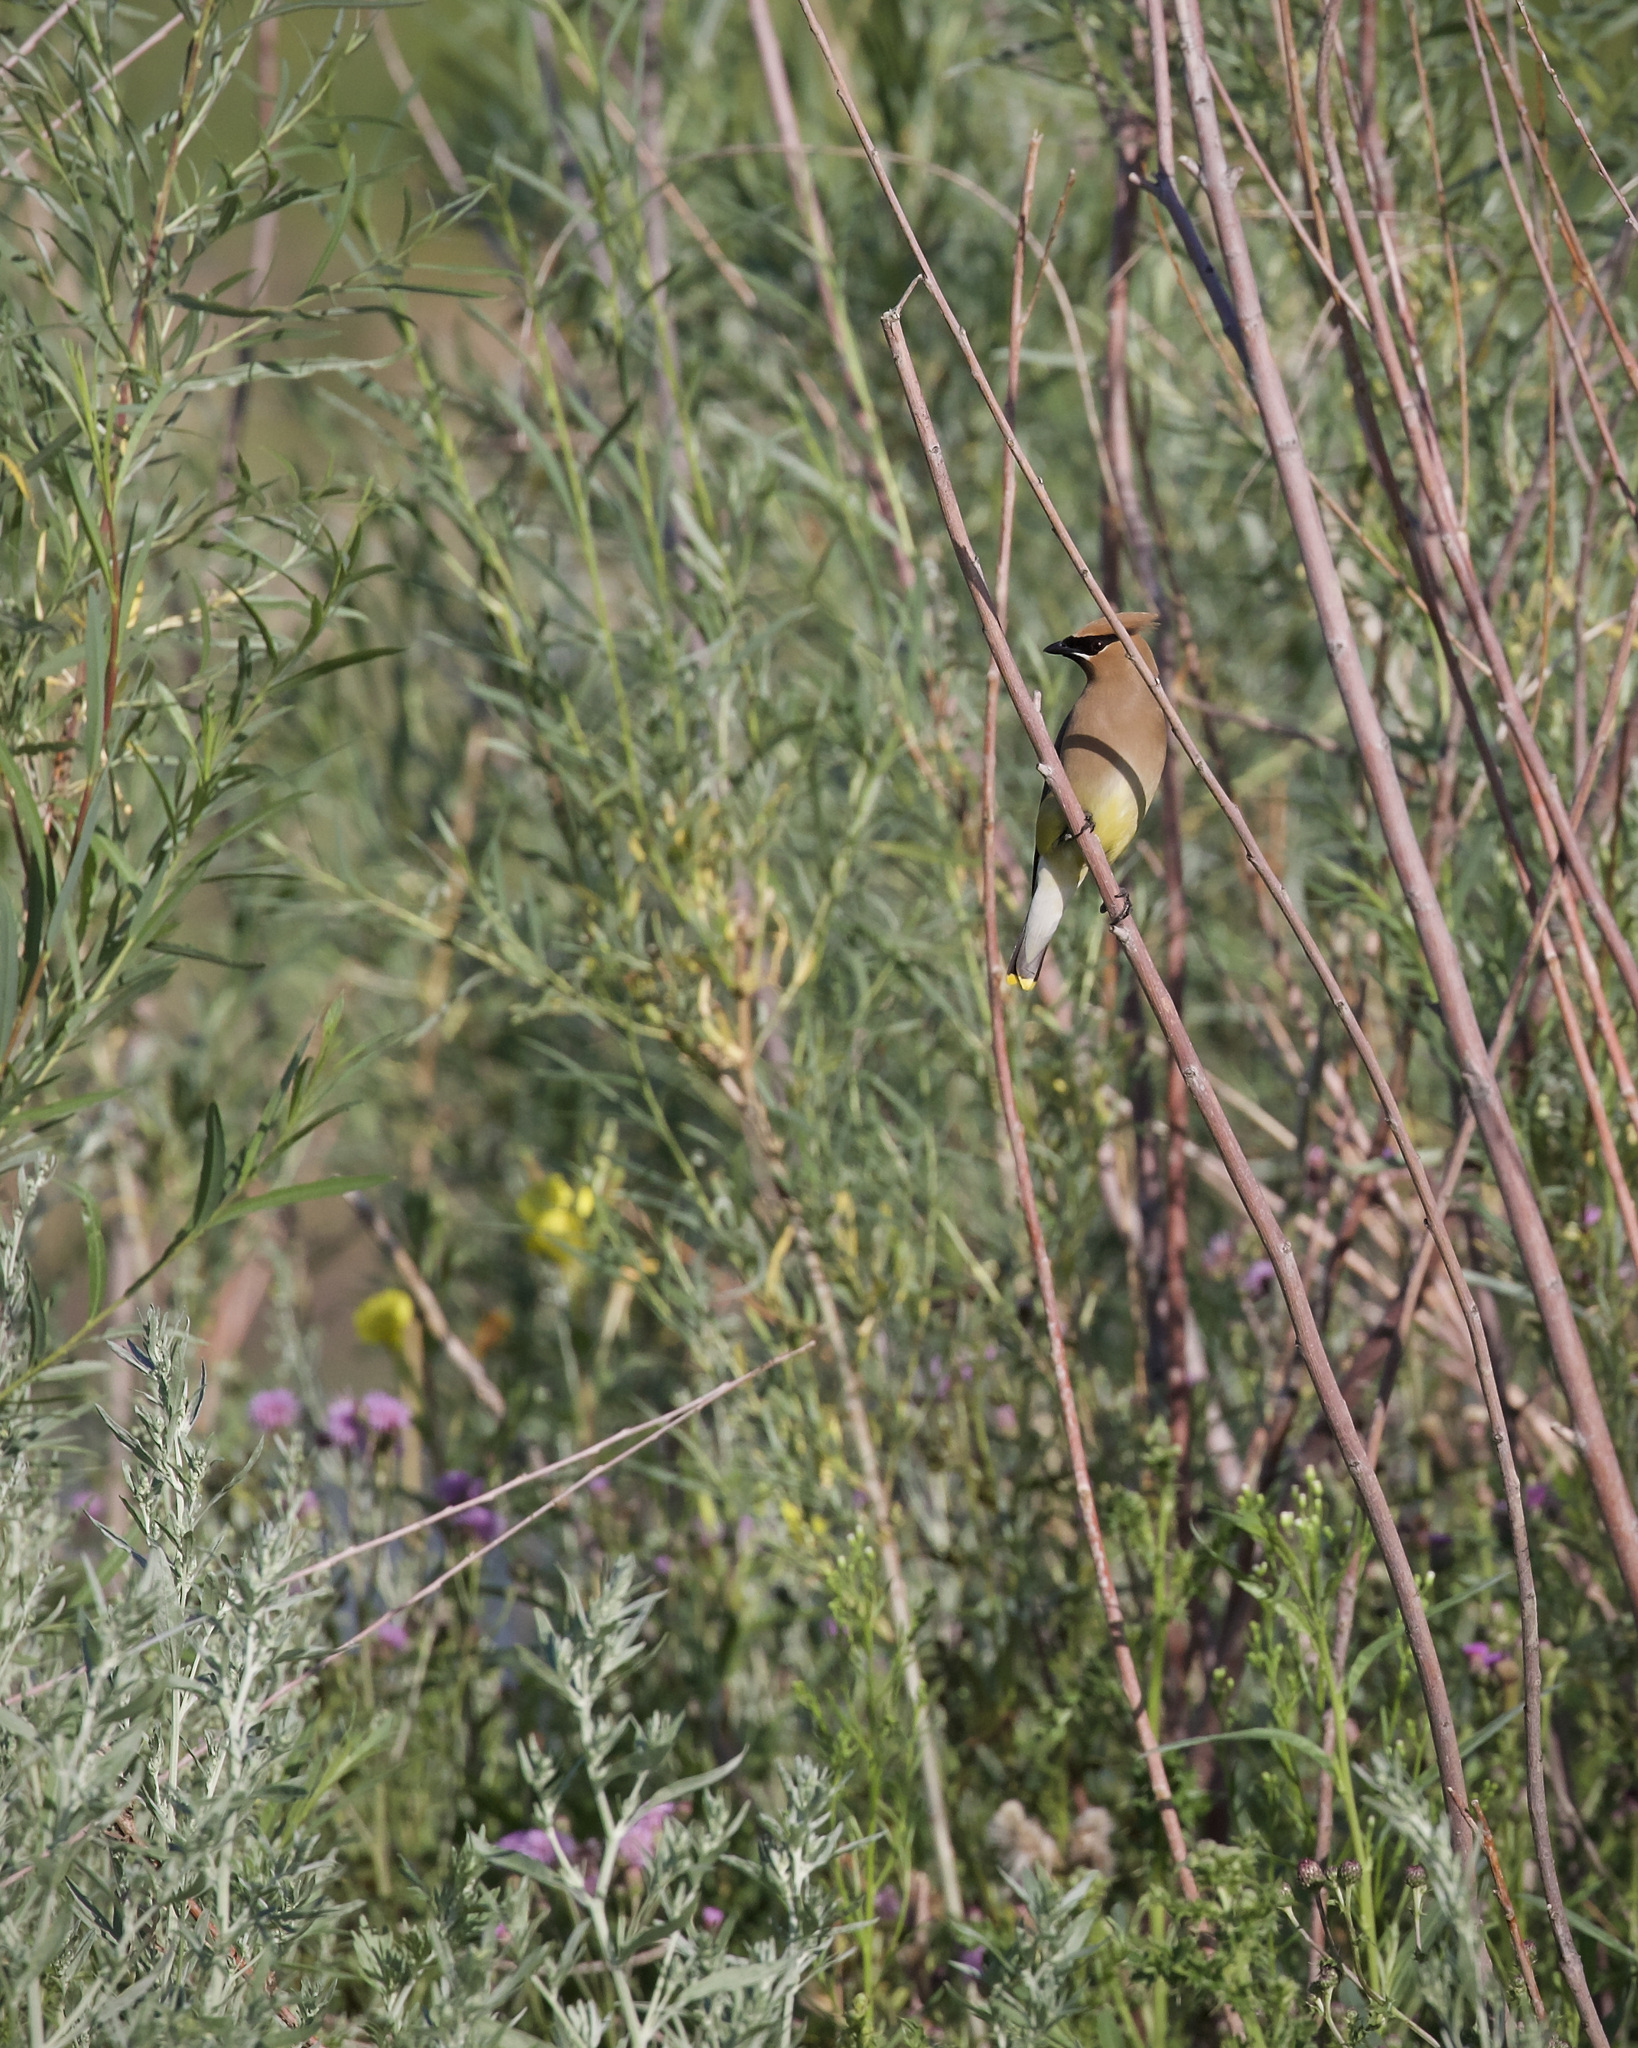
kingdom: Animalia
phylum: Chordata
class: Aves
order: Passeriformes
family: Bombycillidae
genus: Bombycilla
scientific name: Bombycilla cedrorum
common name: Cedar waxwing
